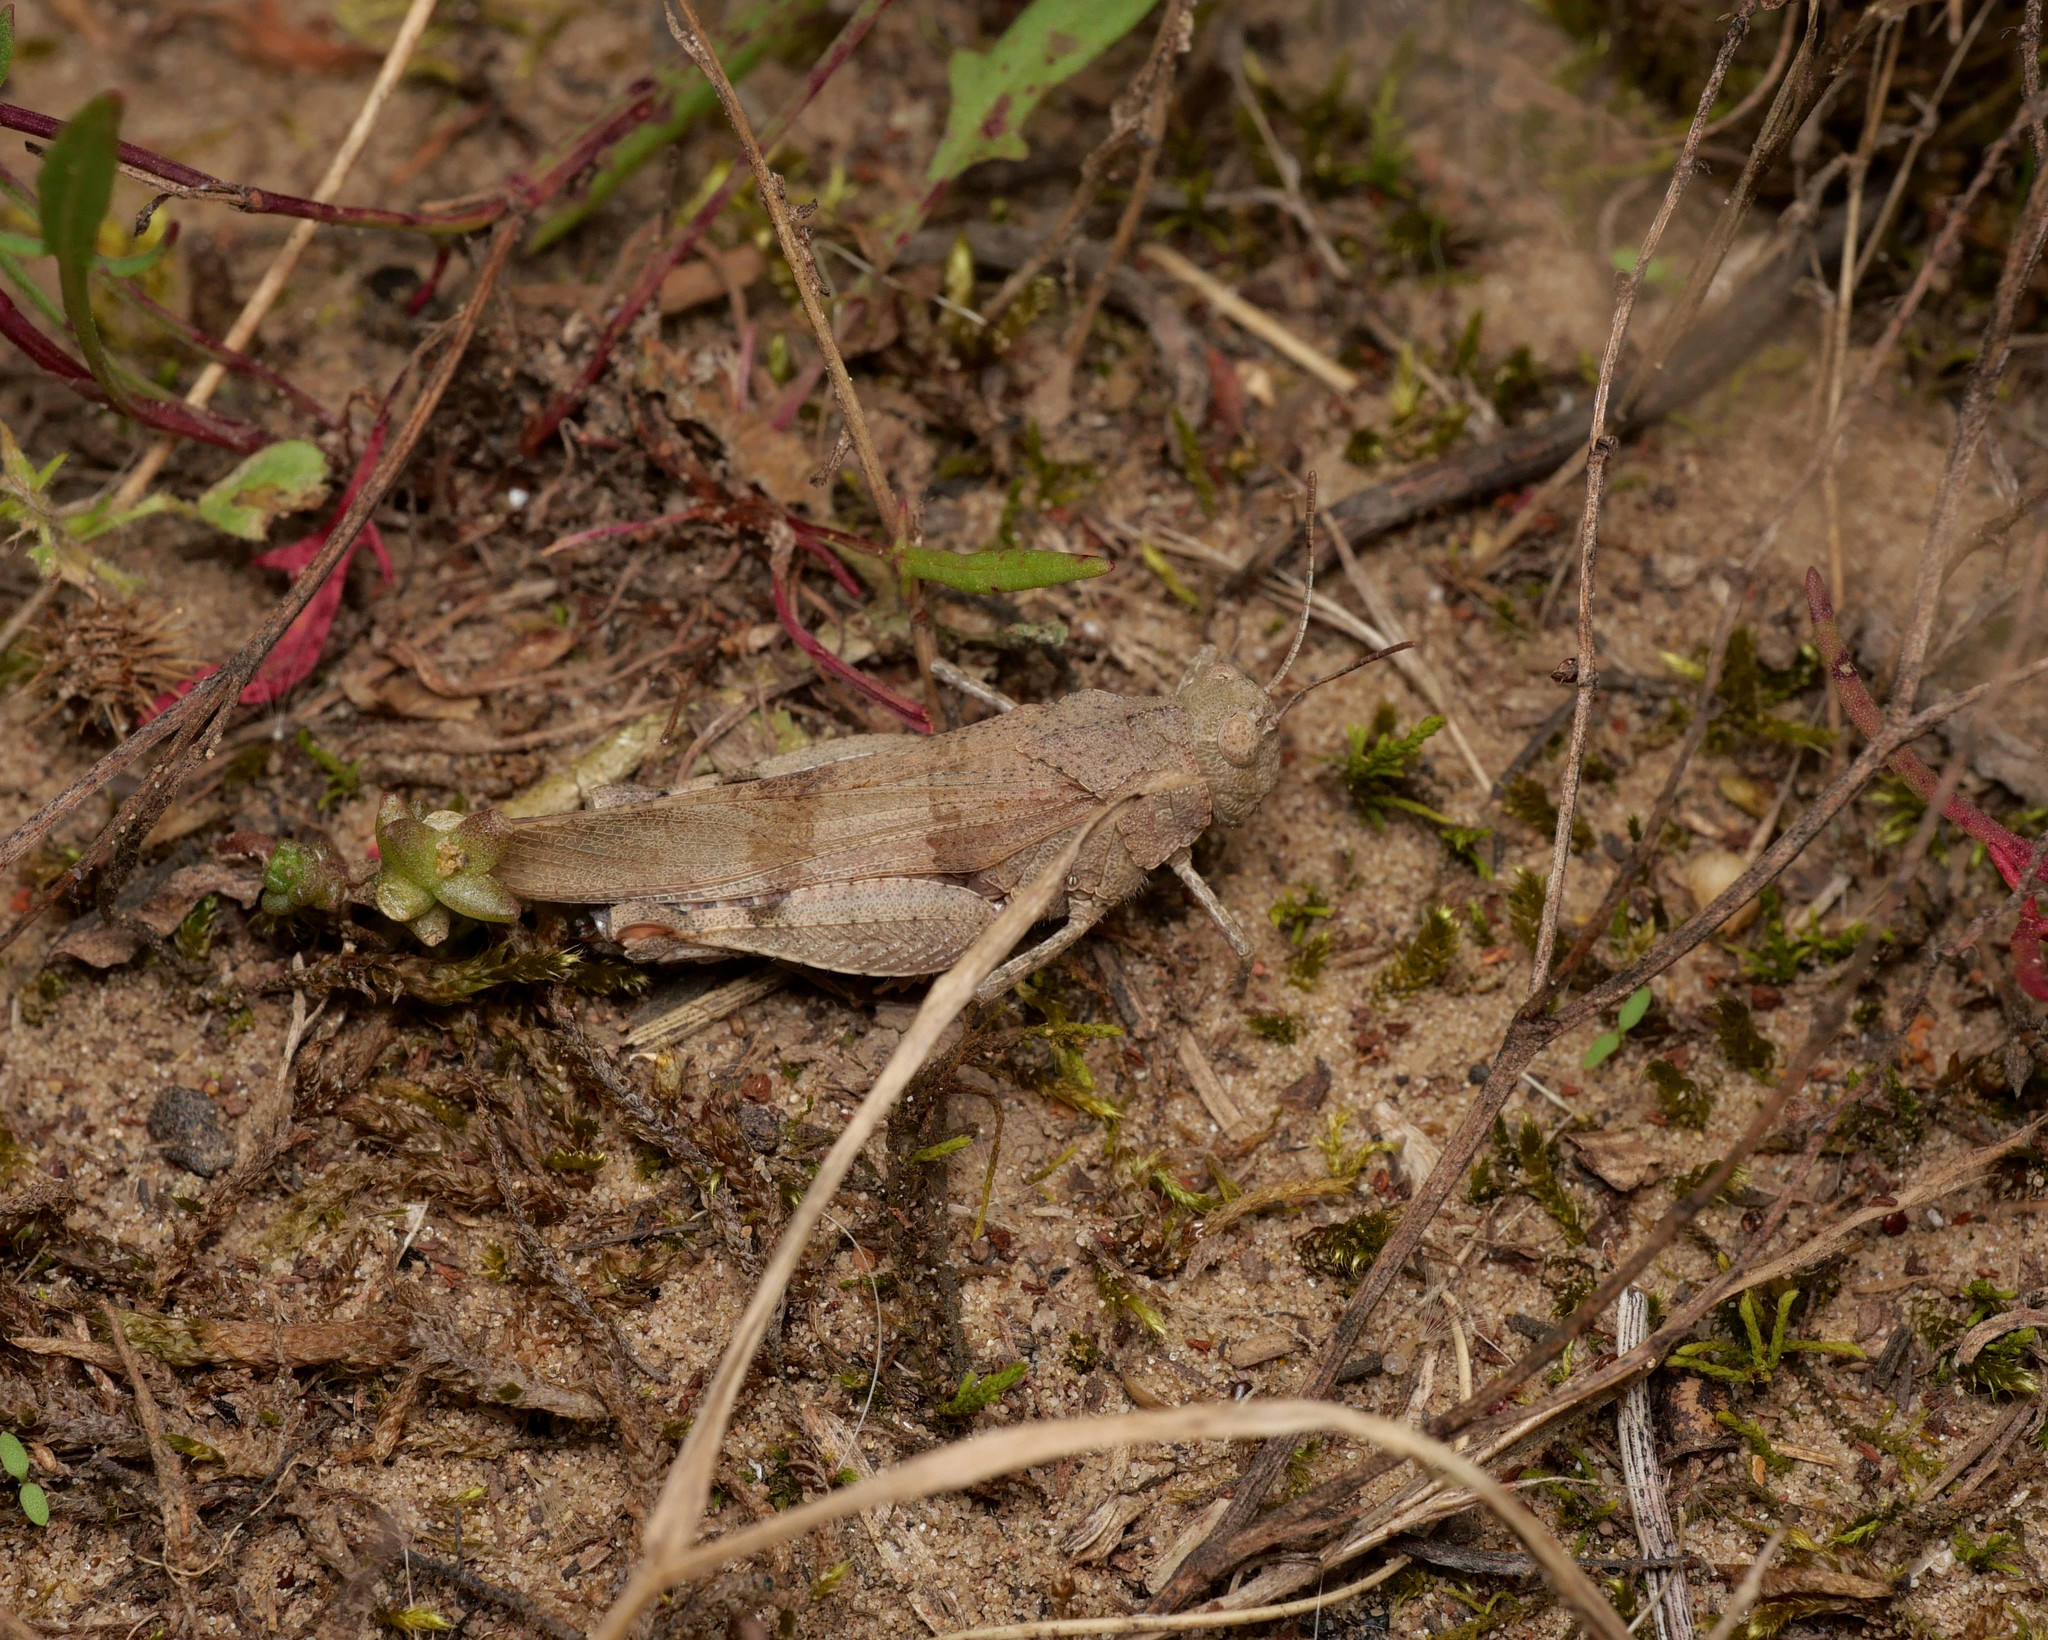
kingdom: Animalia
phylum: Arthropoda
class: Insecta
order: Orthoptera
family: Acrididae
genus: Oedipoda
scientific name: Oedipoda caerulescens
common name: Blue-winged grasshopper
